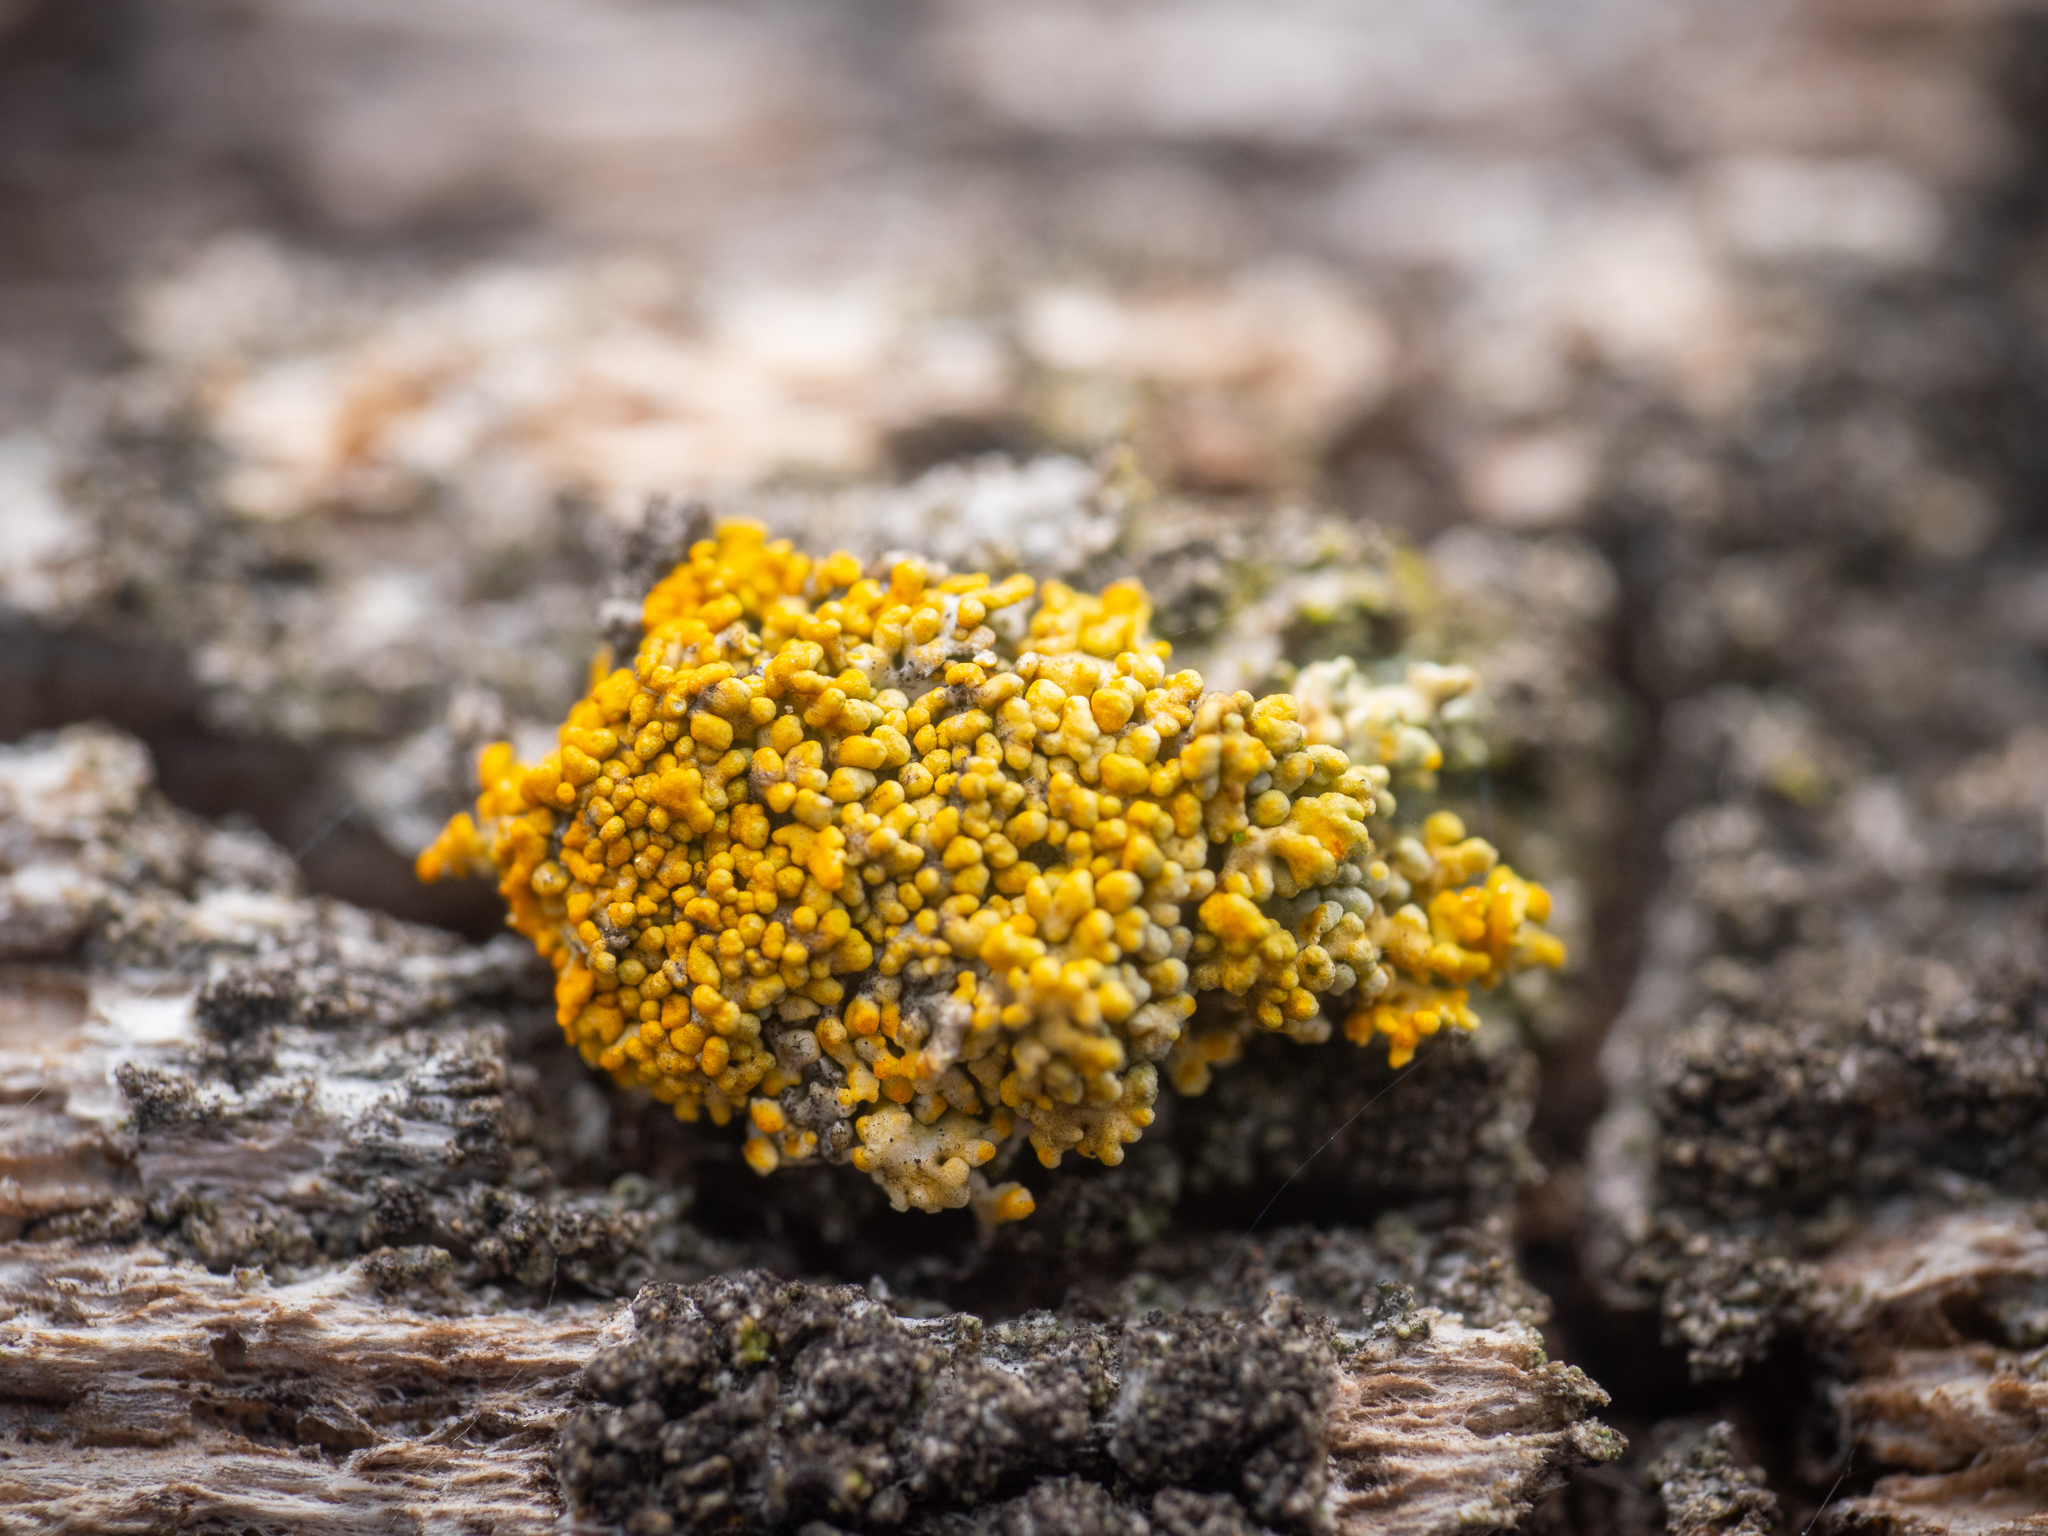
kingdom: Fungi
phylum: Ascomycota
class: Lecanoromycetes
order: Teloschistales
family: Teloschistaceae
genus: Polycauliona
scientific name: Polycauliona polycarpa
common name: Pin-cushion sunburst lichen
